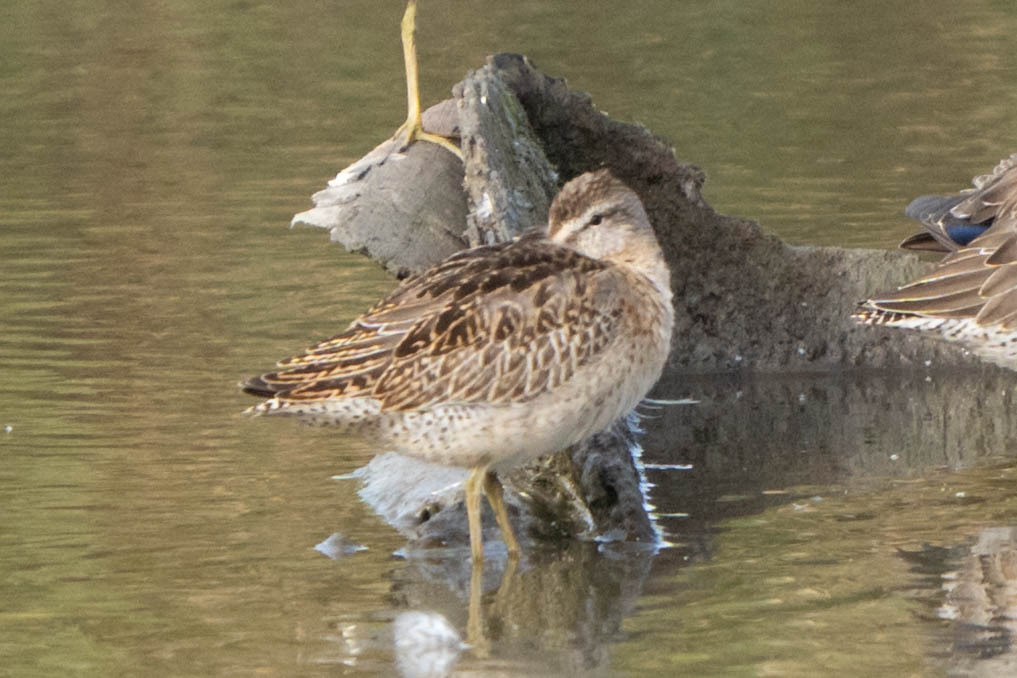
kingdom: Animalia
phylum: Chordata
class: Aves
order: Charadriiformes
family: Scolopacidae
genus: Limnodromus
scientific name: Limnodromus griseus
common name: Short-billed dowitcher
